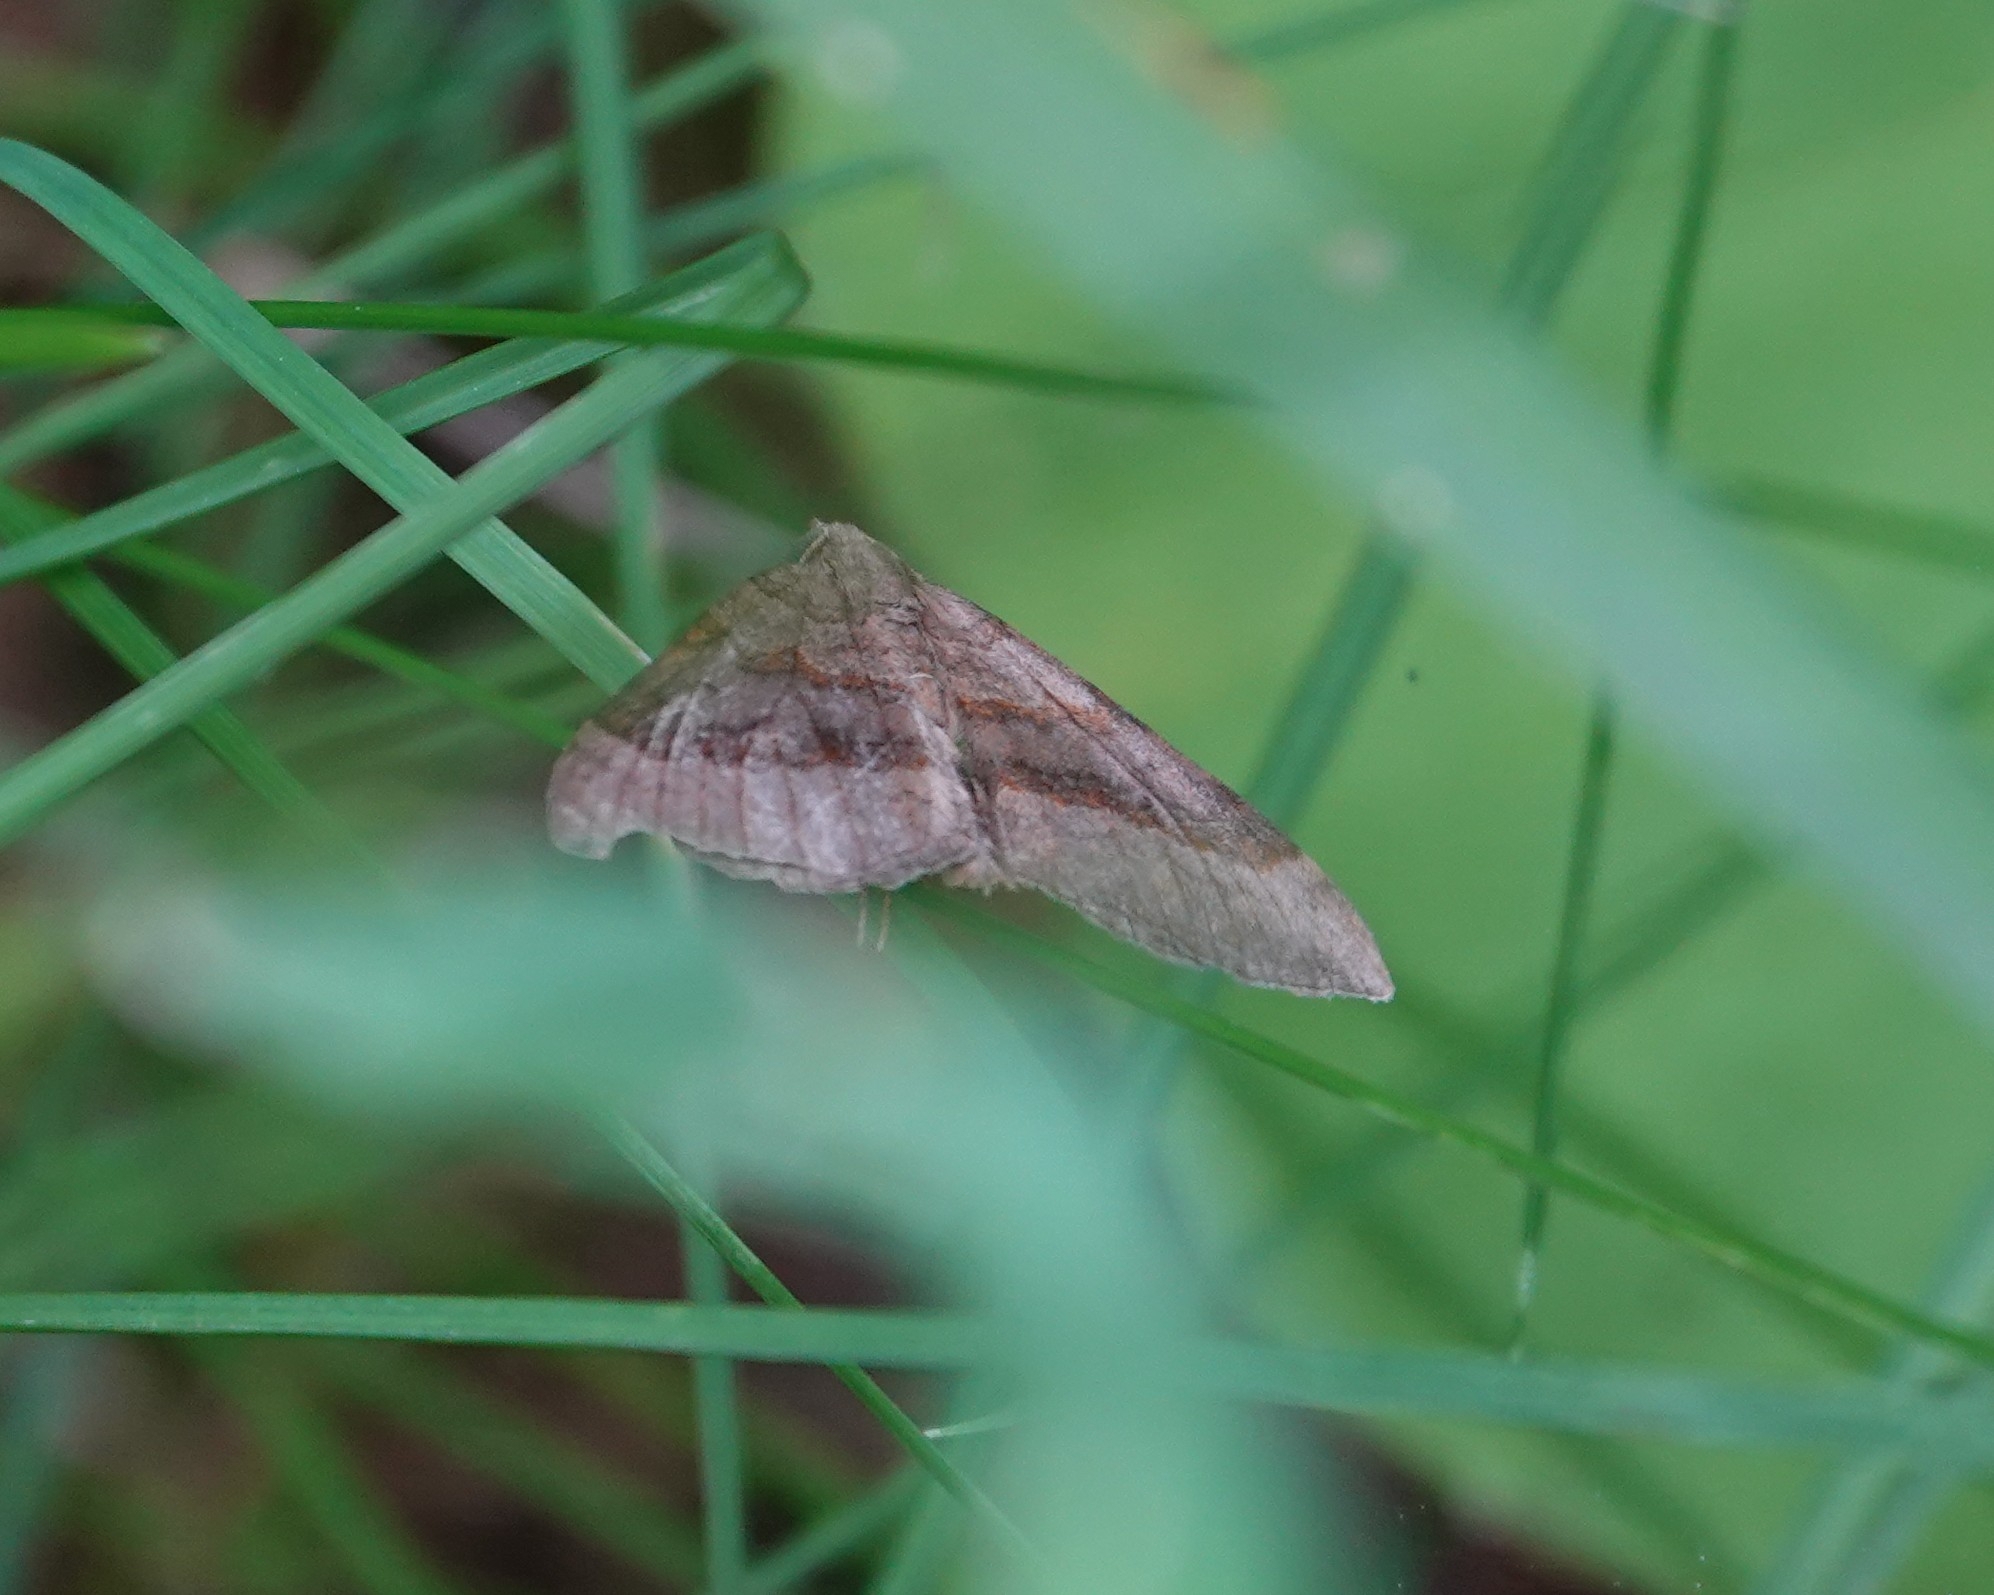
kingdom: Animalia
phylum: Arthropoda
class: Insecta
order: Lepidoptera
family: Geometridae
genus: Scotopteryx
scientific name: Scotopteryx chenopodiata
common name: Shaded broad-bar
